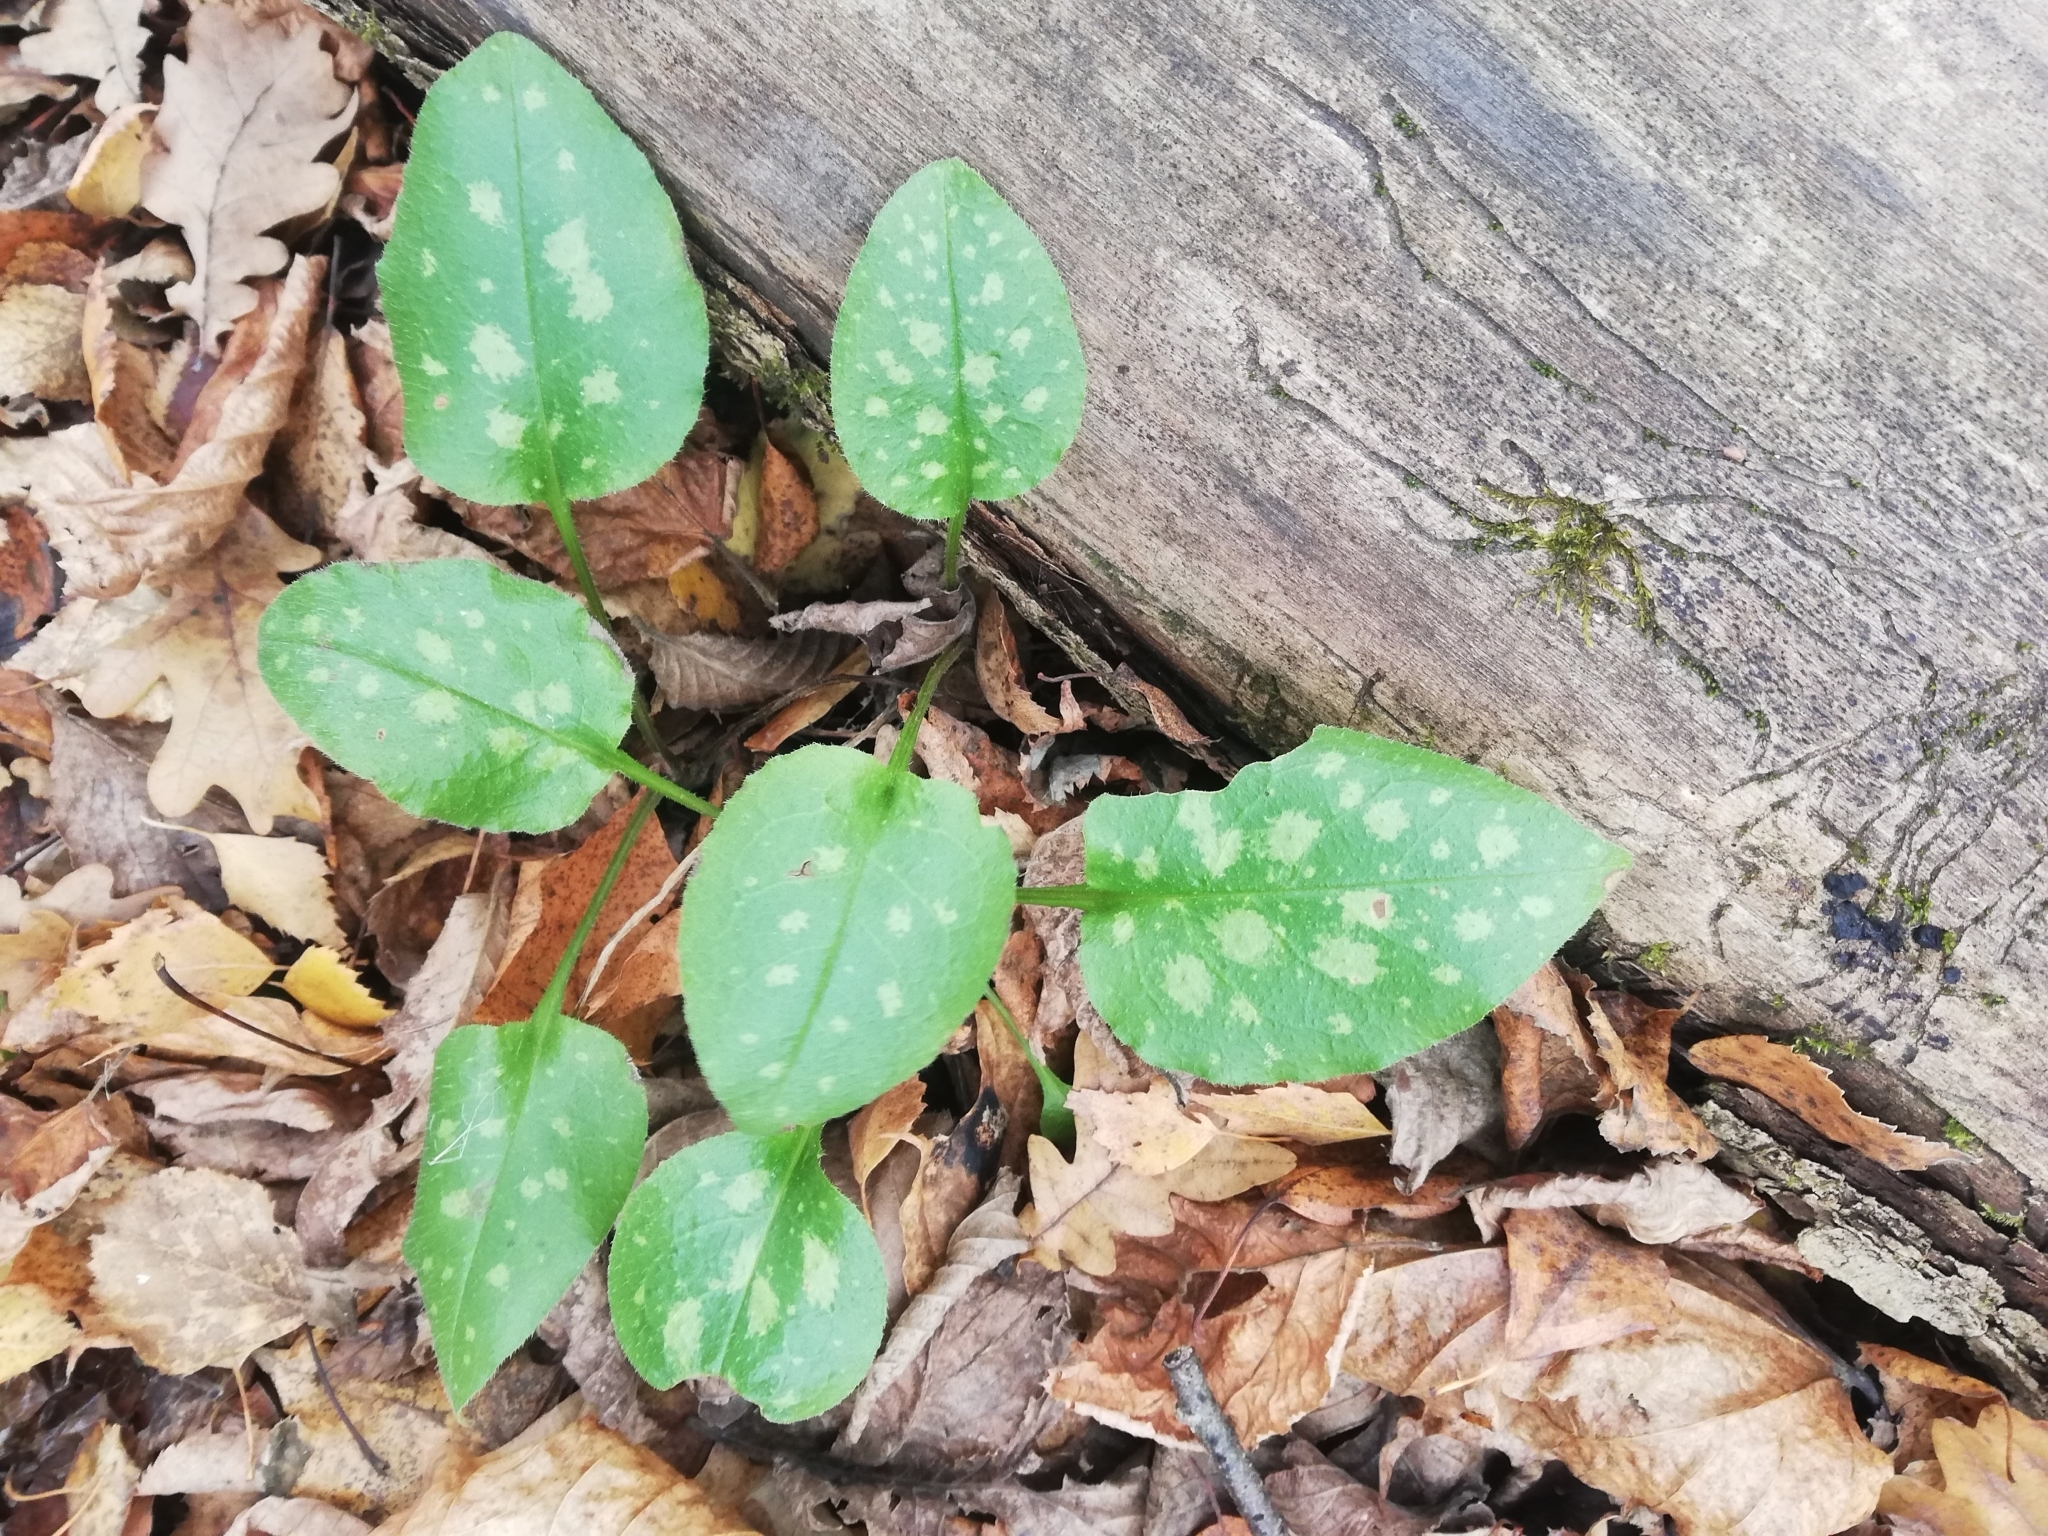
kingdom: Plantae
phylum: Tracheophyta
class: Magnoliopsida
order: Boraginales
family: Boraginaceae
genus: Pulmonaria
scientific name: Pulmonaria obscura
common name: Suffolk lungwort
